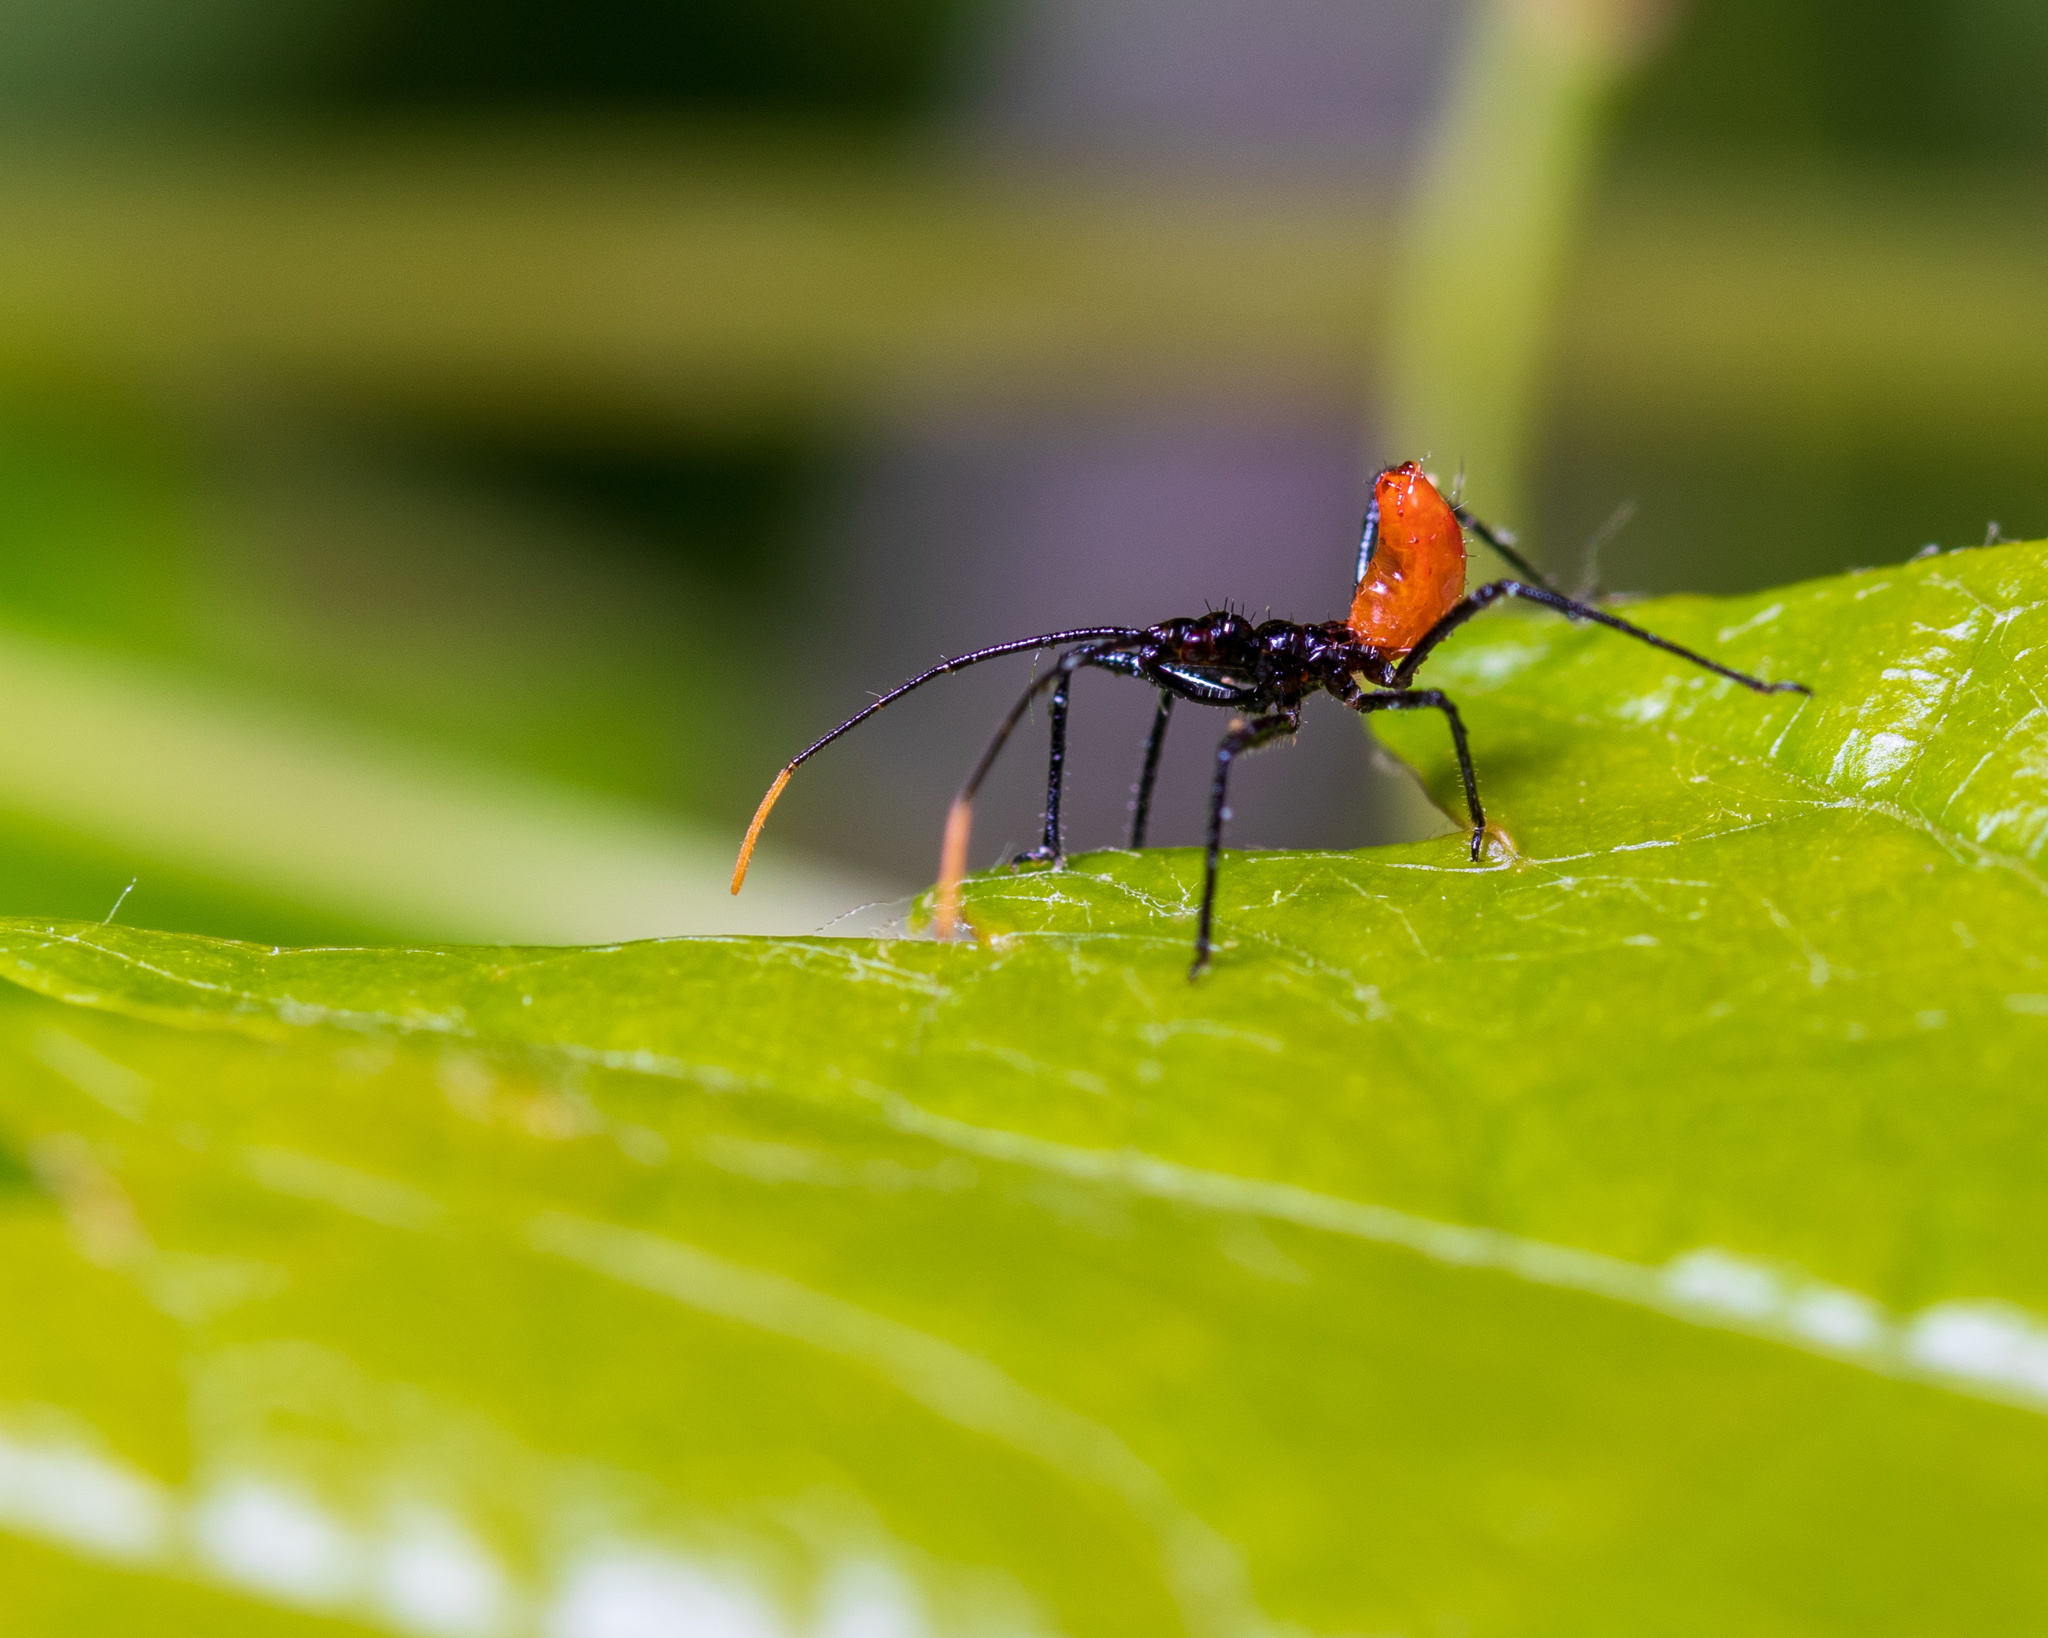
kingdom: Animalia
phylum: Arthropoda
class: Insecta
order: Hemiptera
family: Reduviidae
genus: Arilus
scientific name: Arilus cristatus
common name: North american wheel bug
